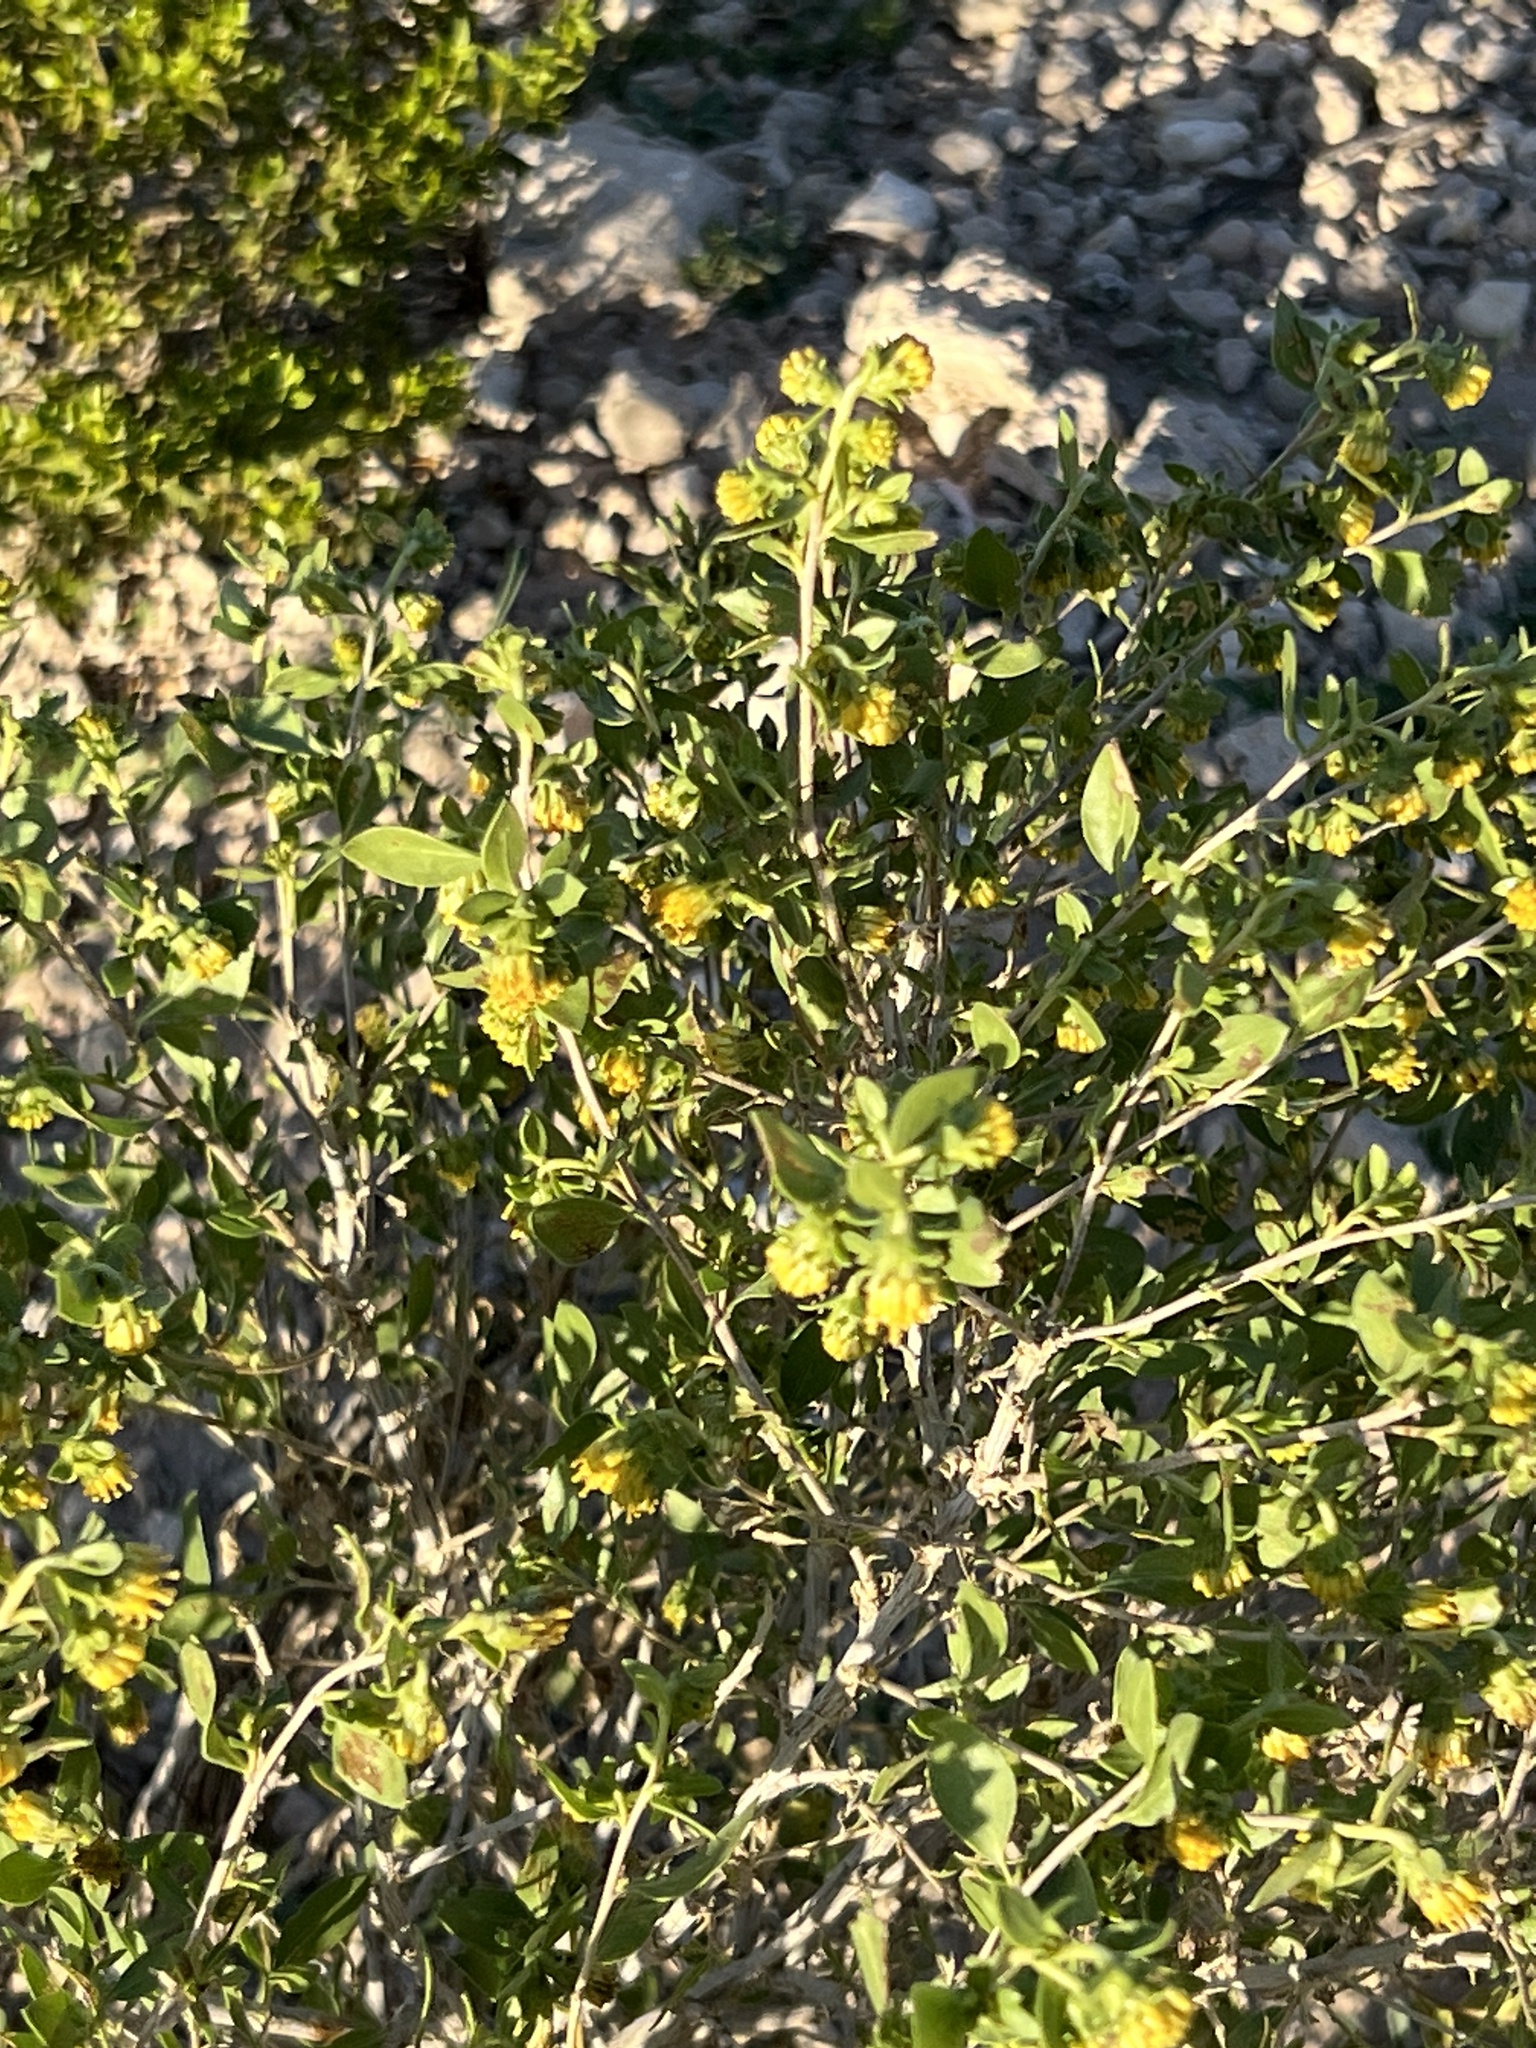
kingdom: Plantae
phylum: Tracheophyta
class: Magnoliopsida
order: Asterales
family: Asteraceae
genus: Flourensia
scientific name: Flourensia cernua
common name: Varnishbush
